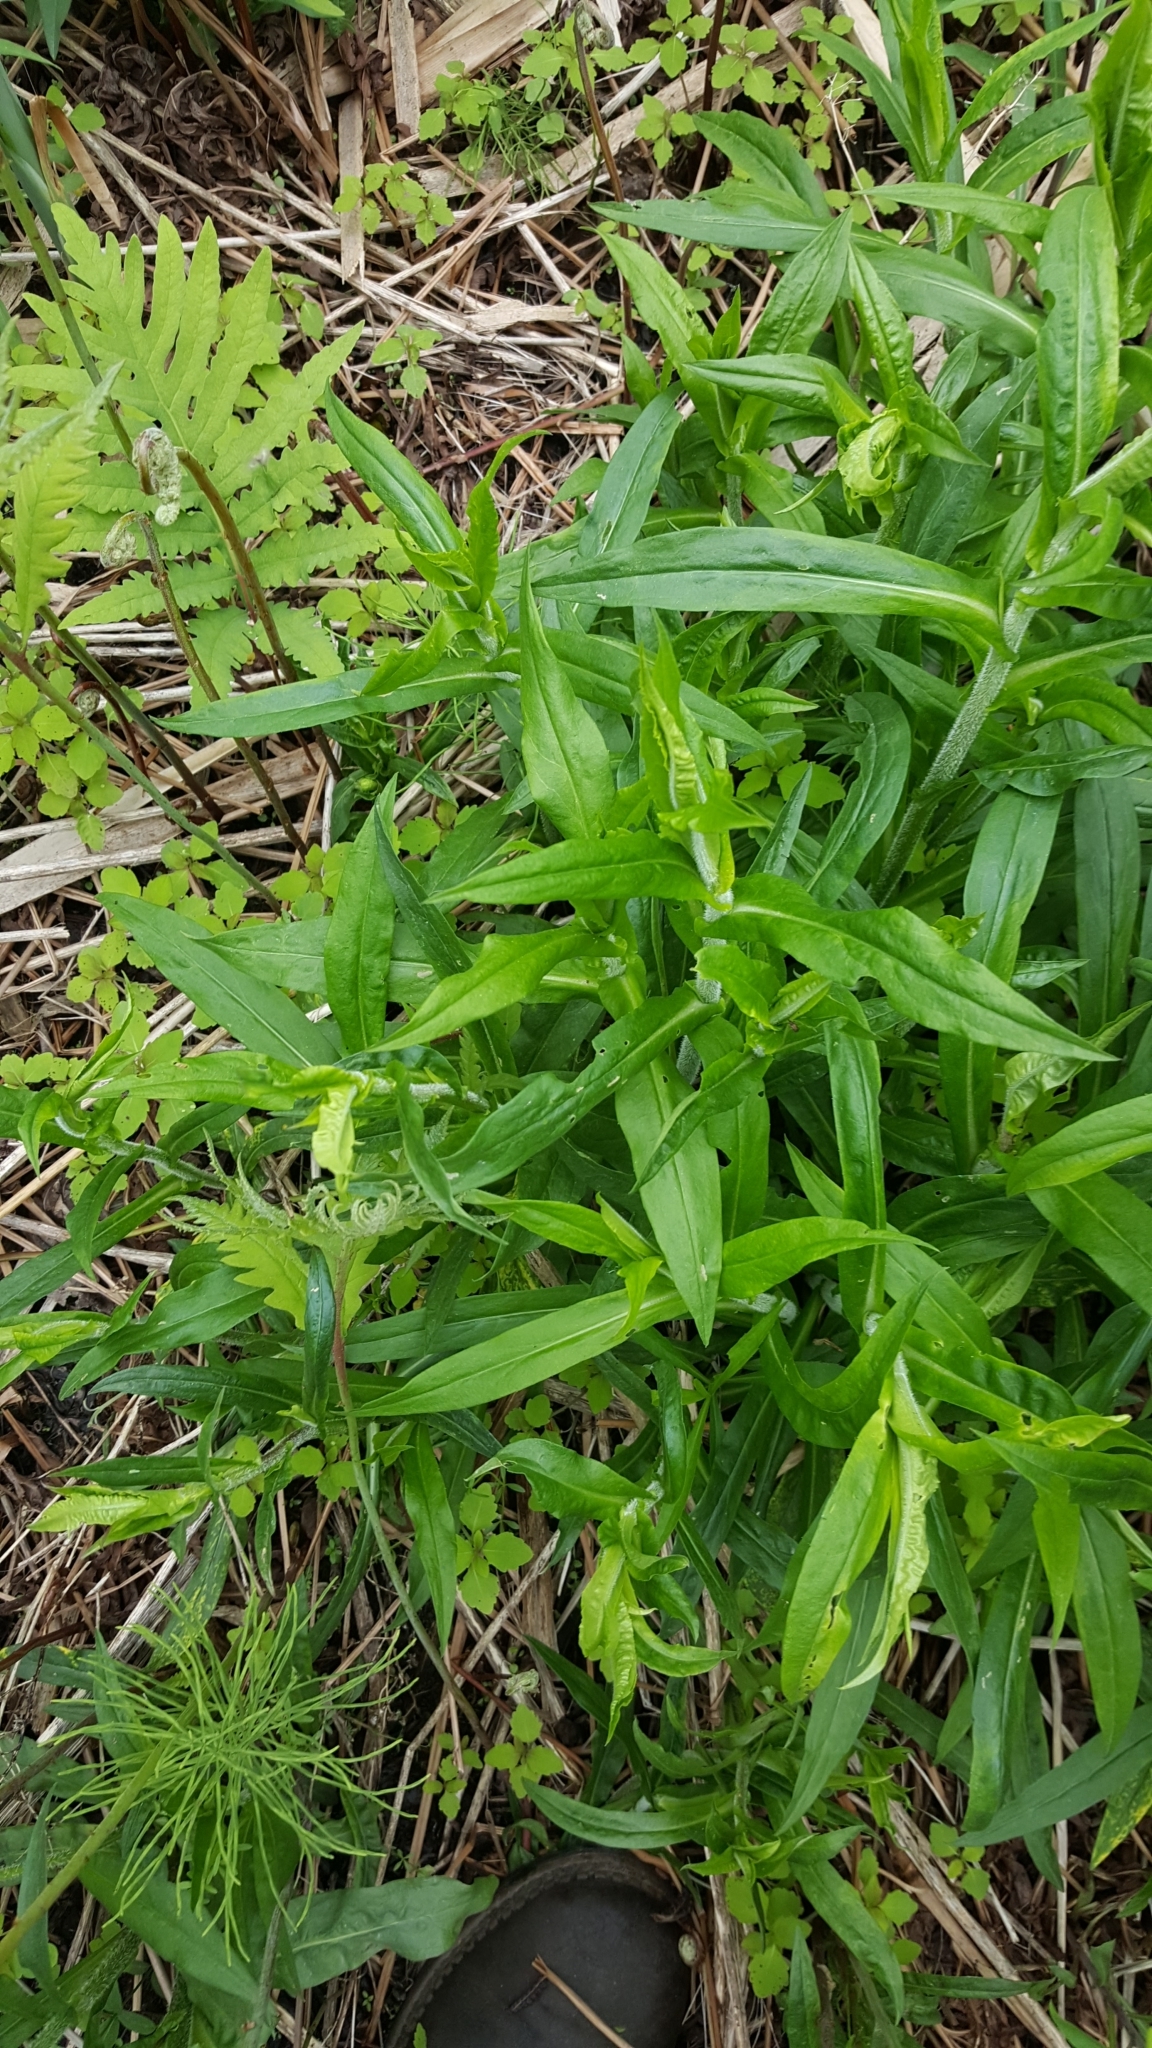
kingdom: Plantae
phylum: Tracheophyta
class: Magnoliopsida
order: Asterales
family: Asteraceae
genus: Symphyotrichum
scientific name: Symphyotrichum puniceum
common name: Bog aster
